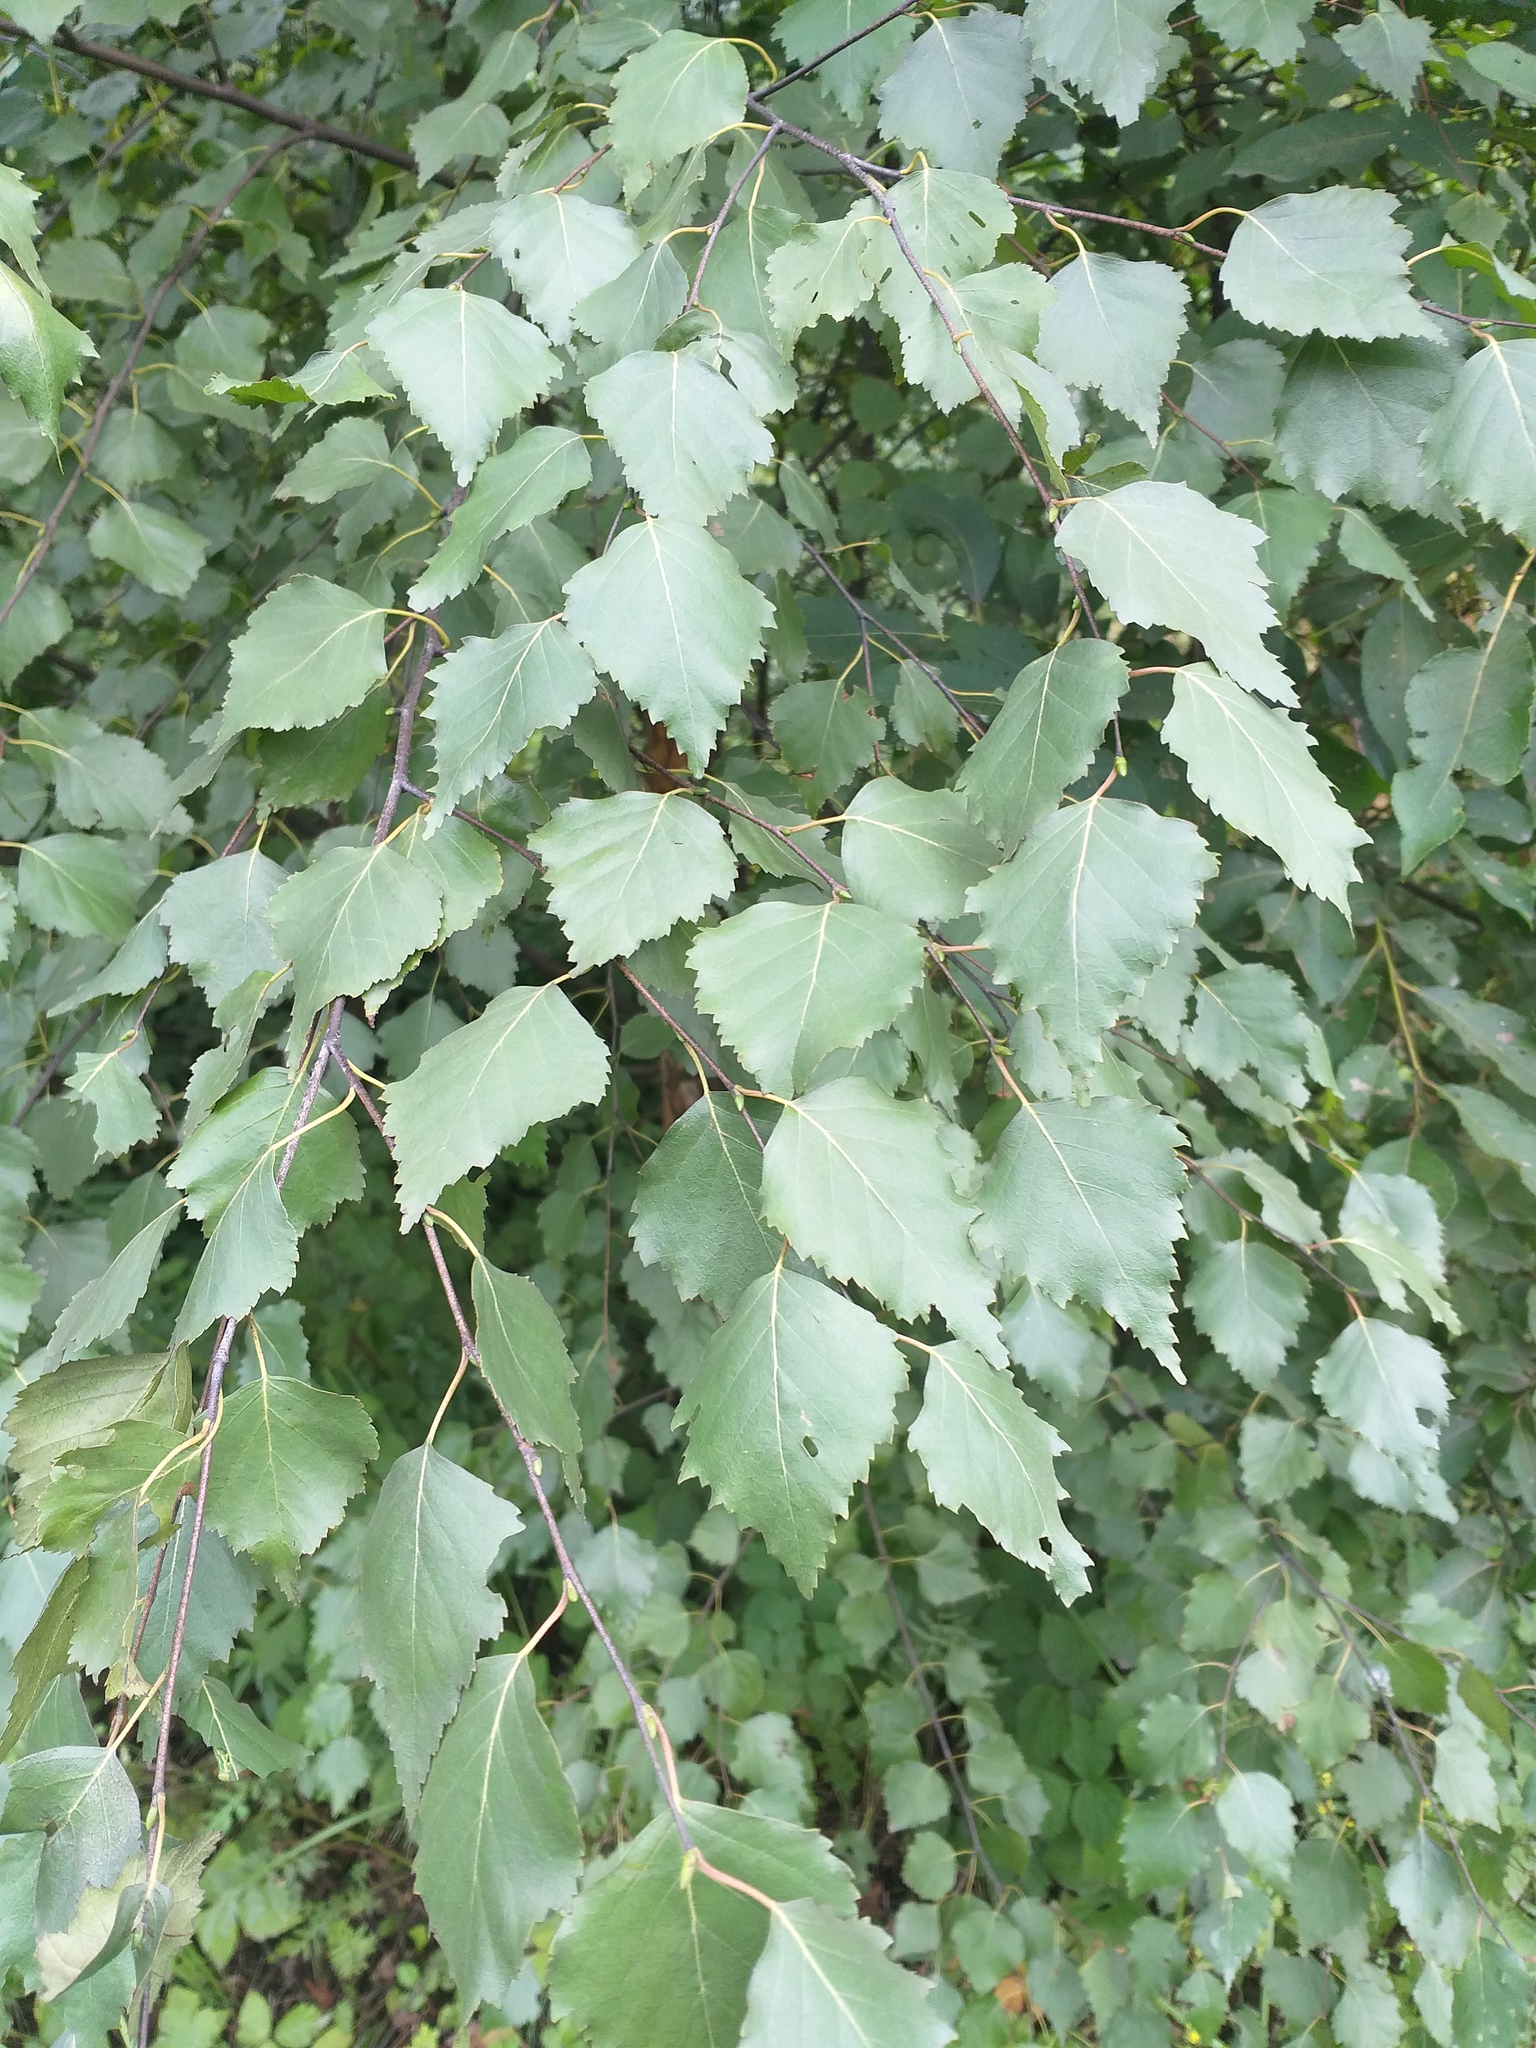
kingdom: Plantae
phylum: Tracheophyta
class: Magnoliopsida
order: Fagales
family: Betulaceae
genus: Betula
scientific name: Betula pendula
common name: Silver birch
